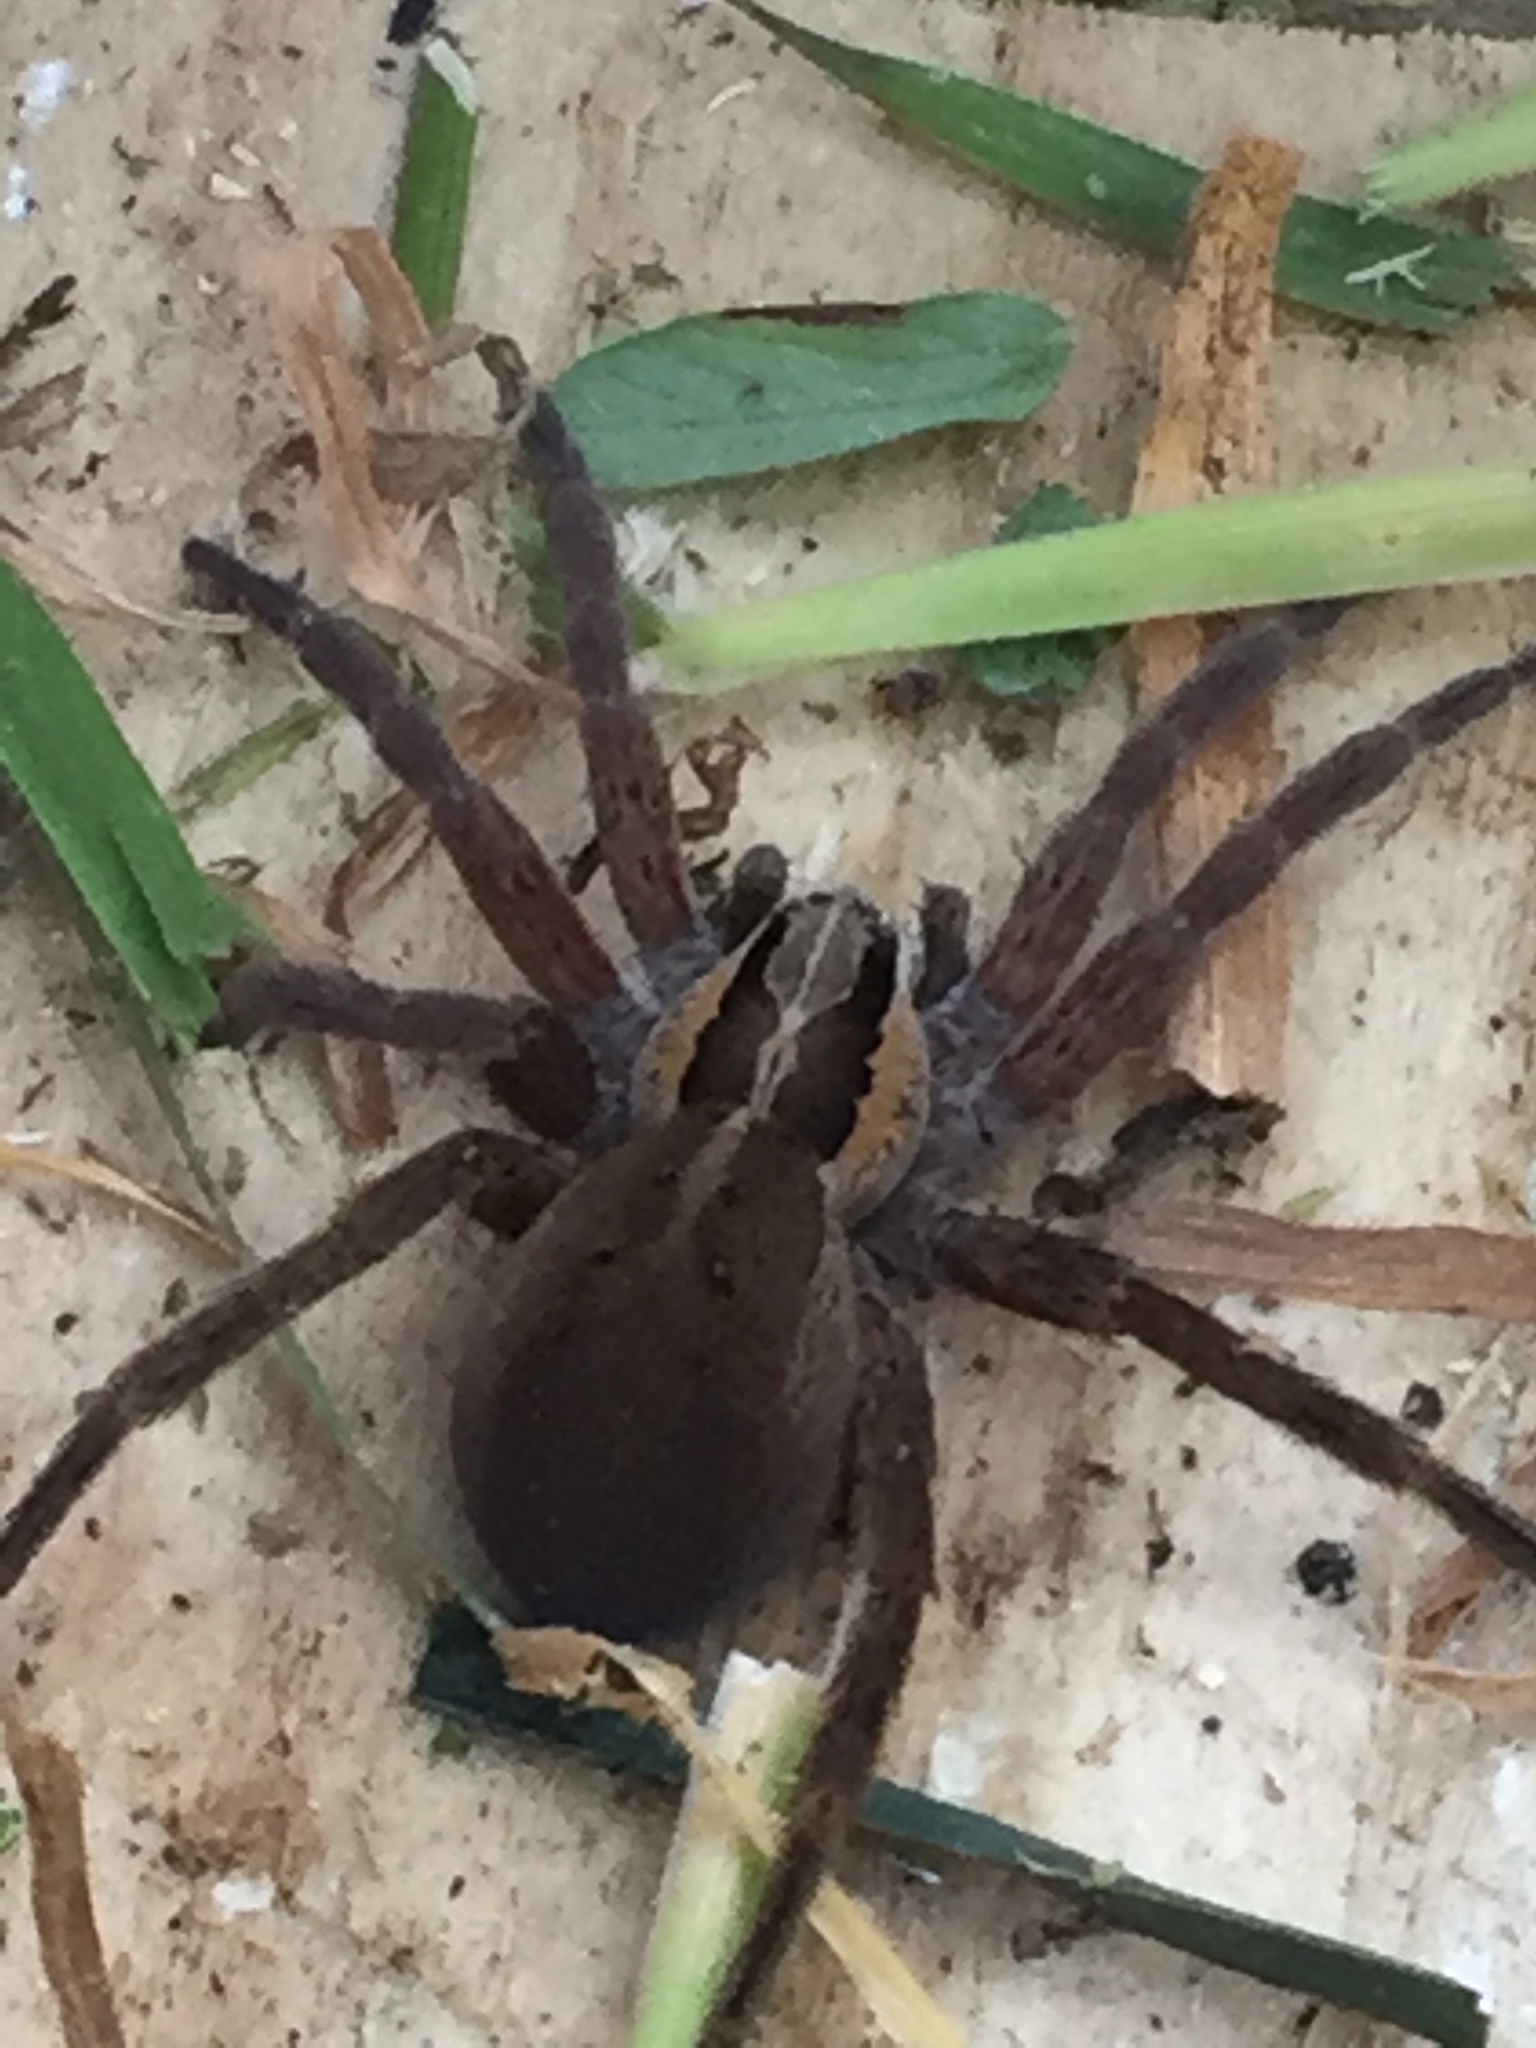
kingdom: Animalia
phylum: Arthropoda
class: Arachnida
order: Araneae
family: Pisauridae
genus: Dolomedes
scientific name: Dolomedes minor
